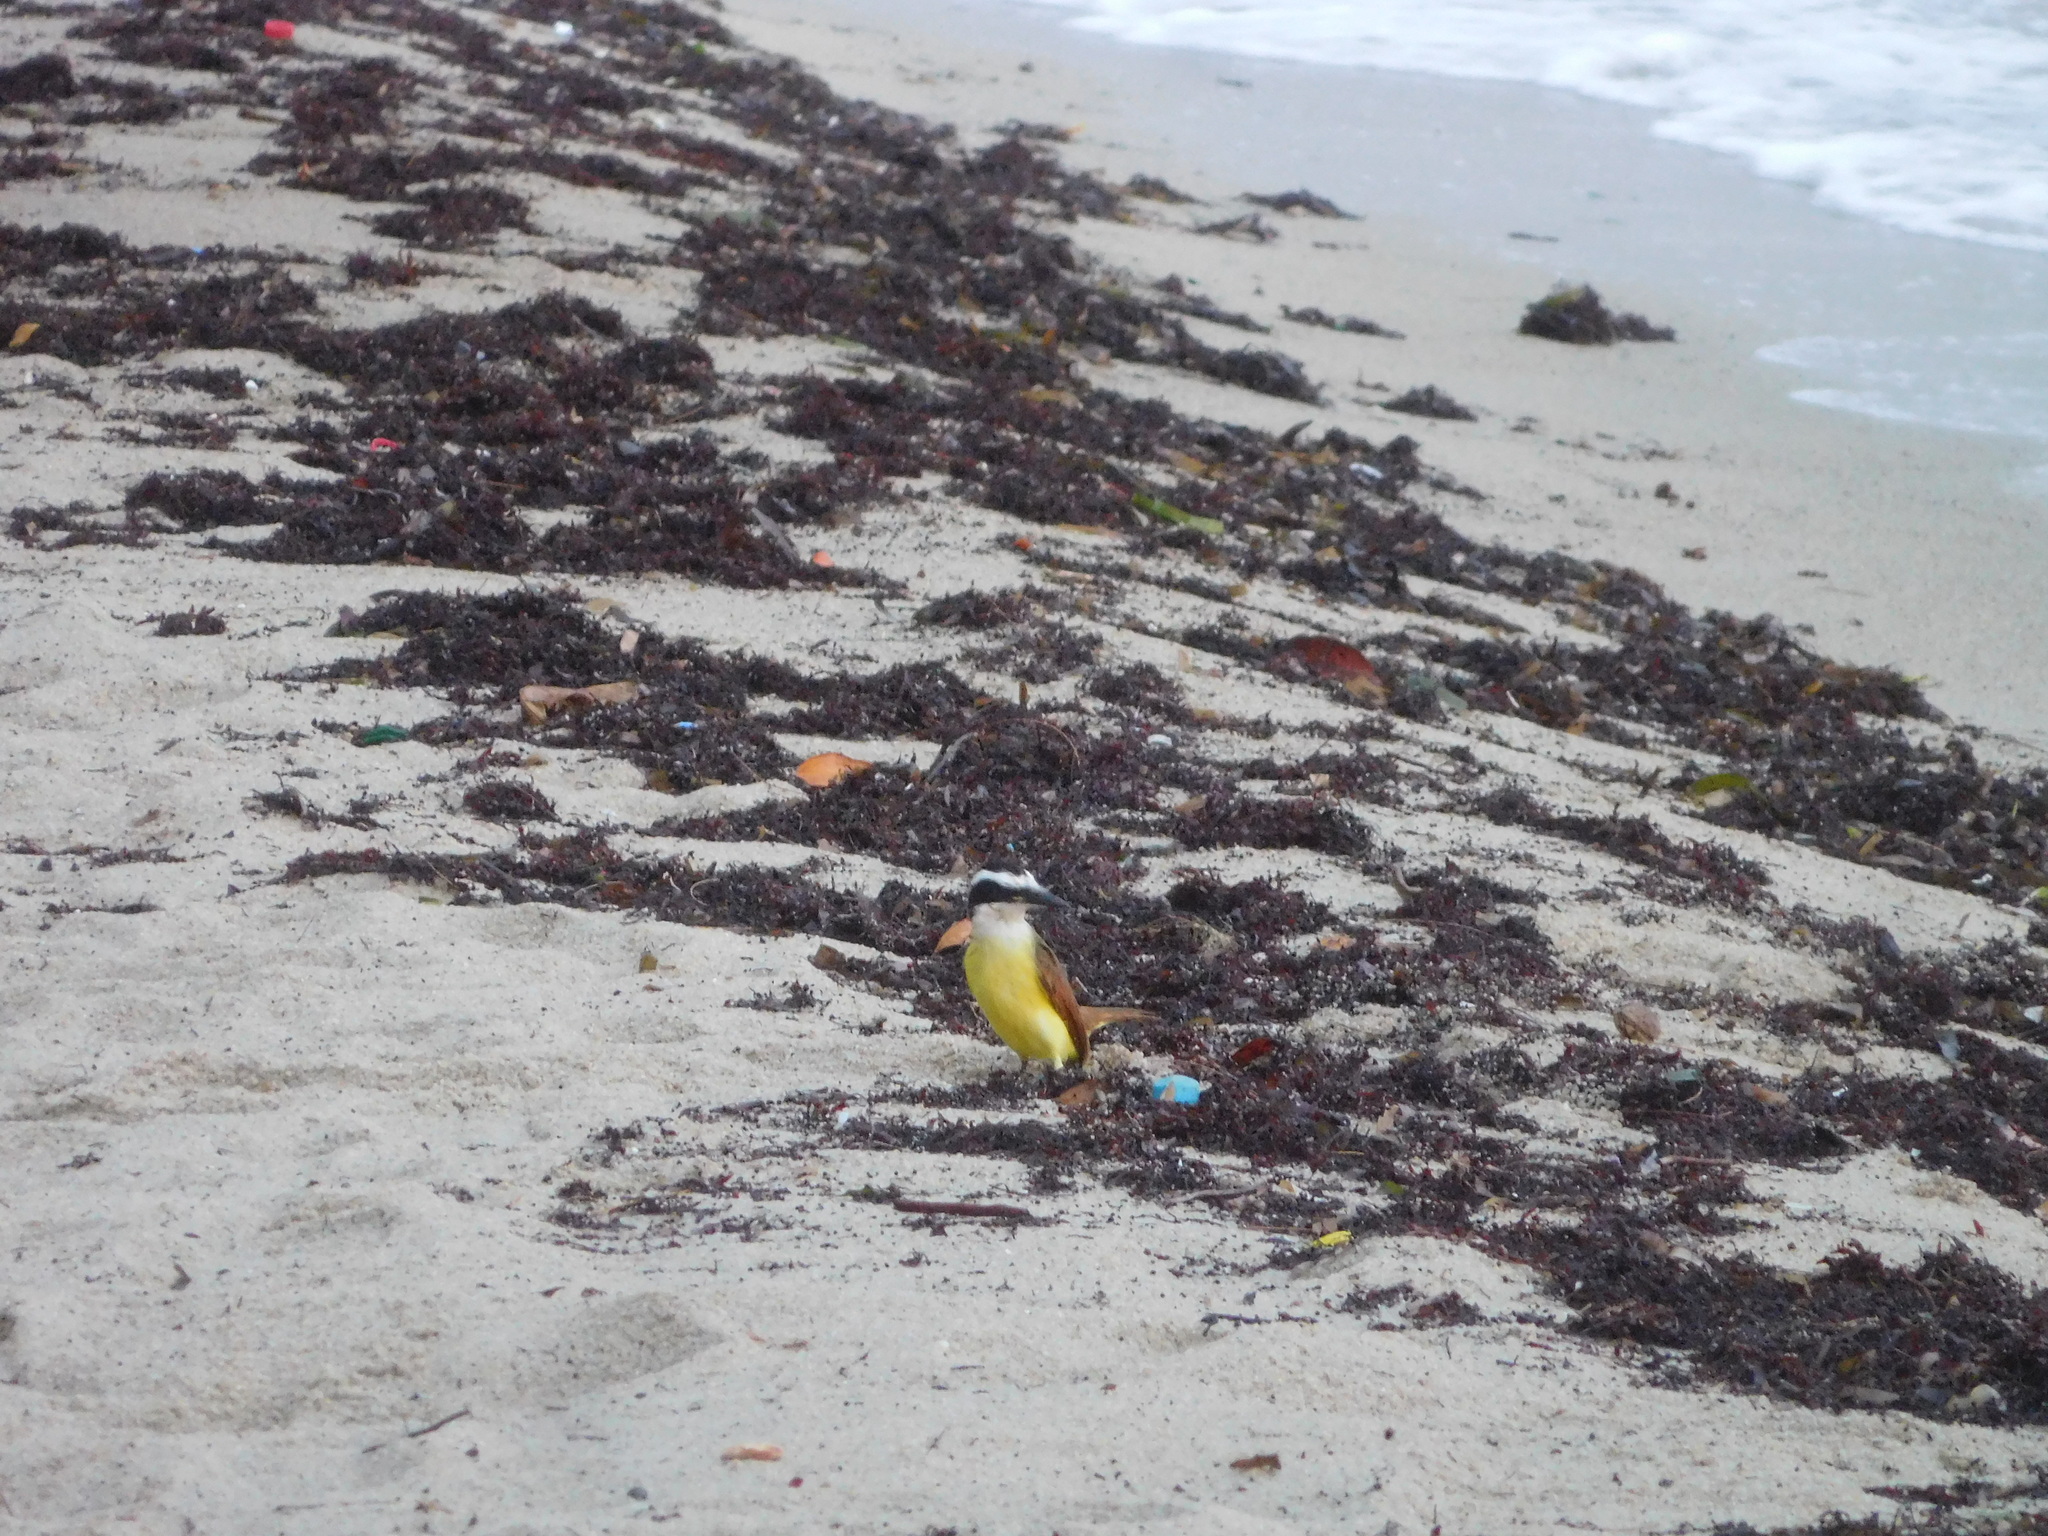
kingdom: Animalia
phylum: Chordata
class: Aves
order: Passeriformes
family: Tyrannidae
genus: Pitangus
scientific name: Pitangus sulphuratus
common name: Great kiskadee
